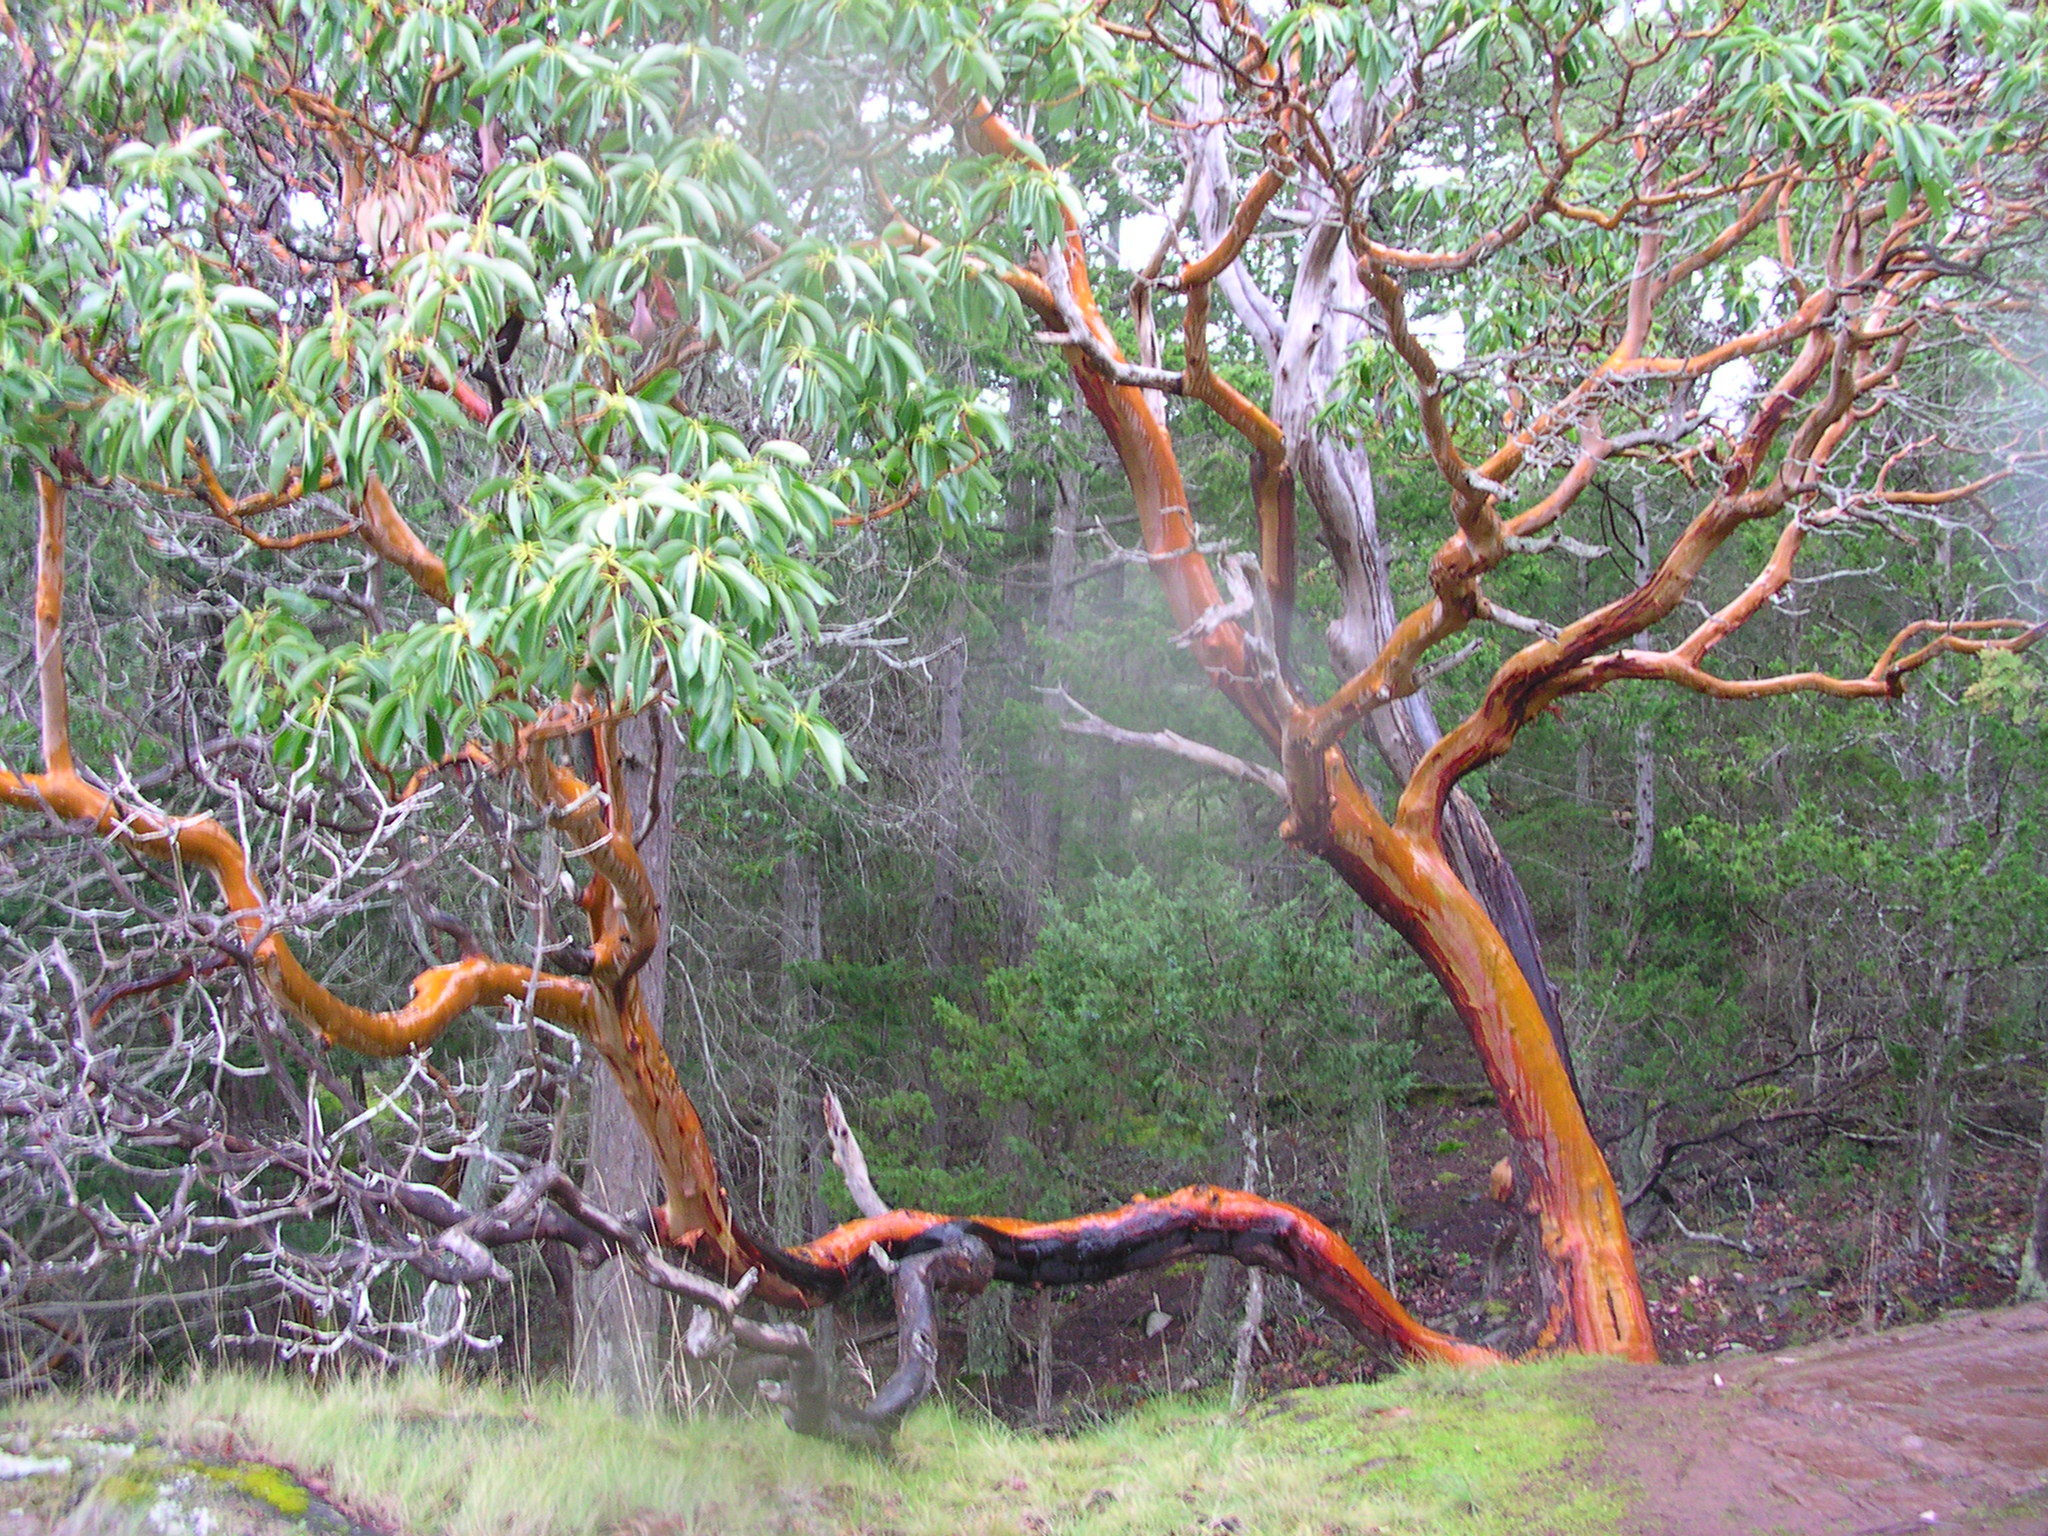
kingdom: Plantae
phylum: Tracheophyta
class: Magnoliopsida
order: Ericales
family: Ericaceae
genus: Arbutus
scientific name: Arbutus menziesii
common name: Pacific madrone
